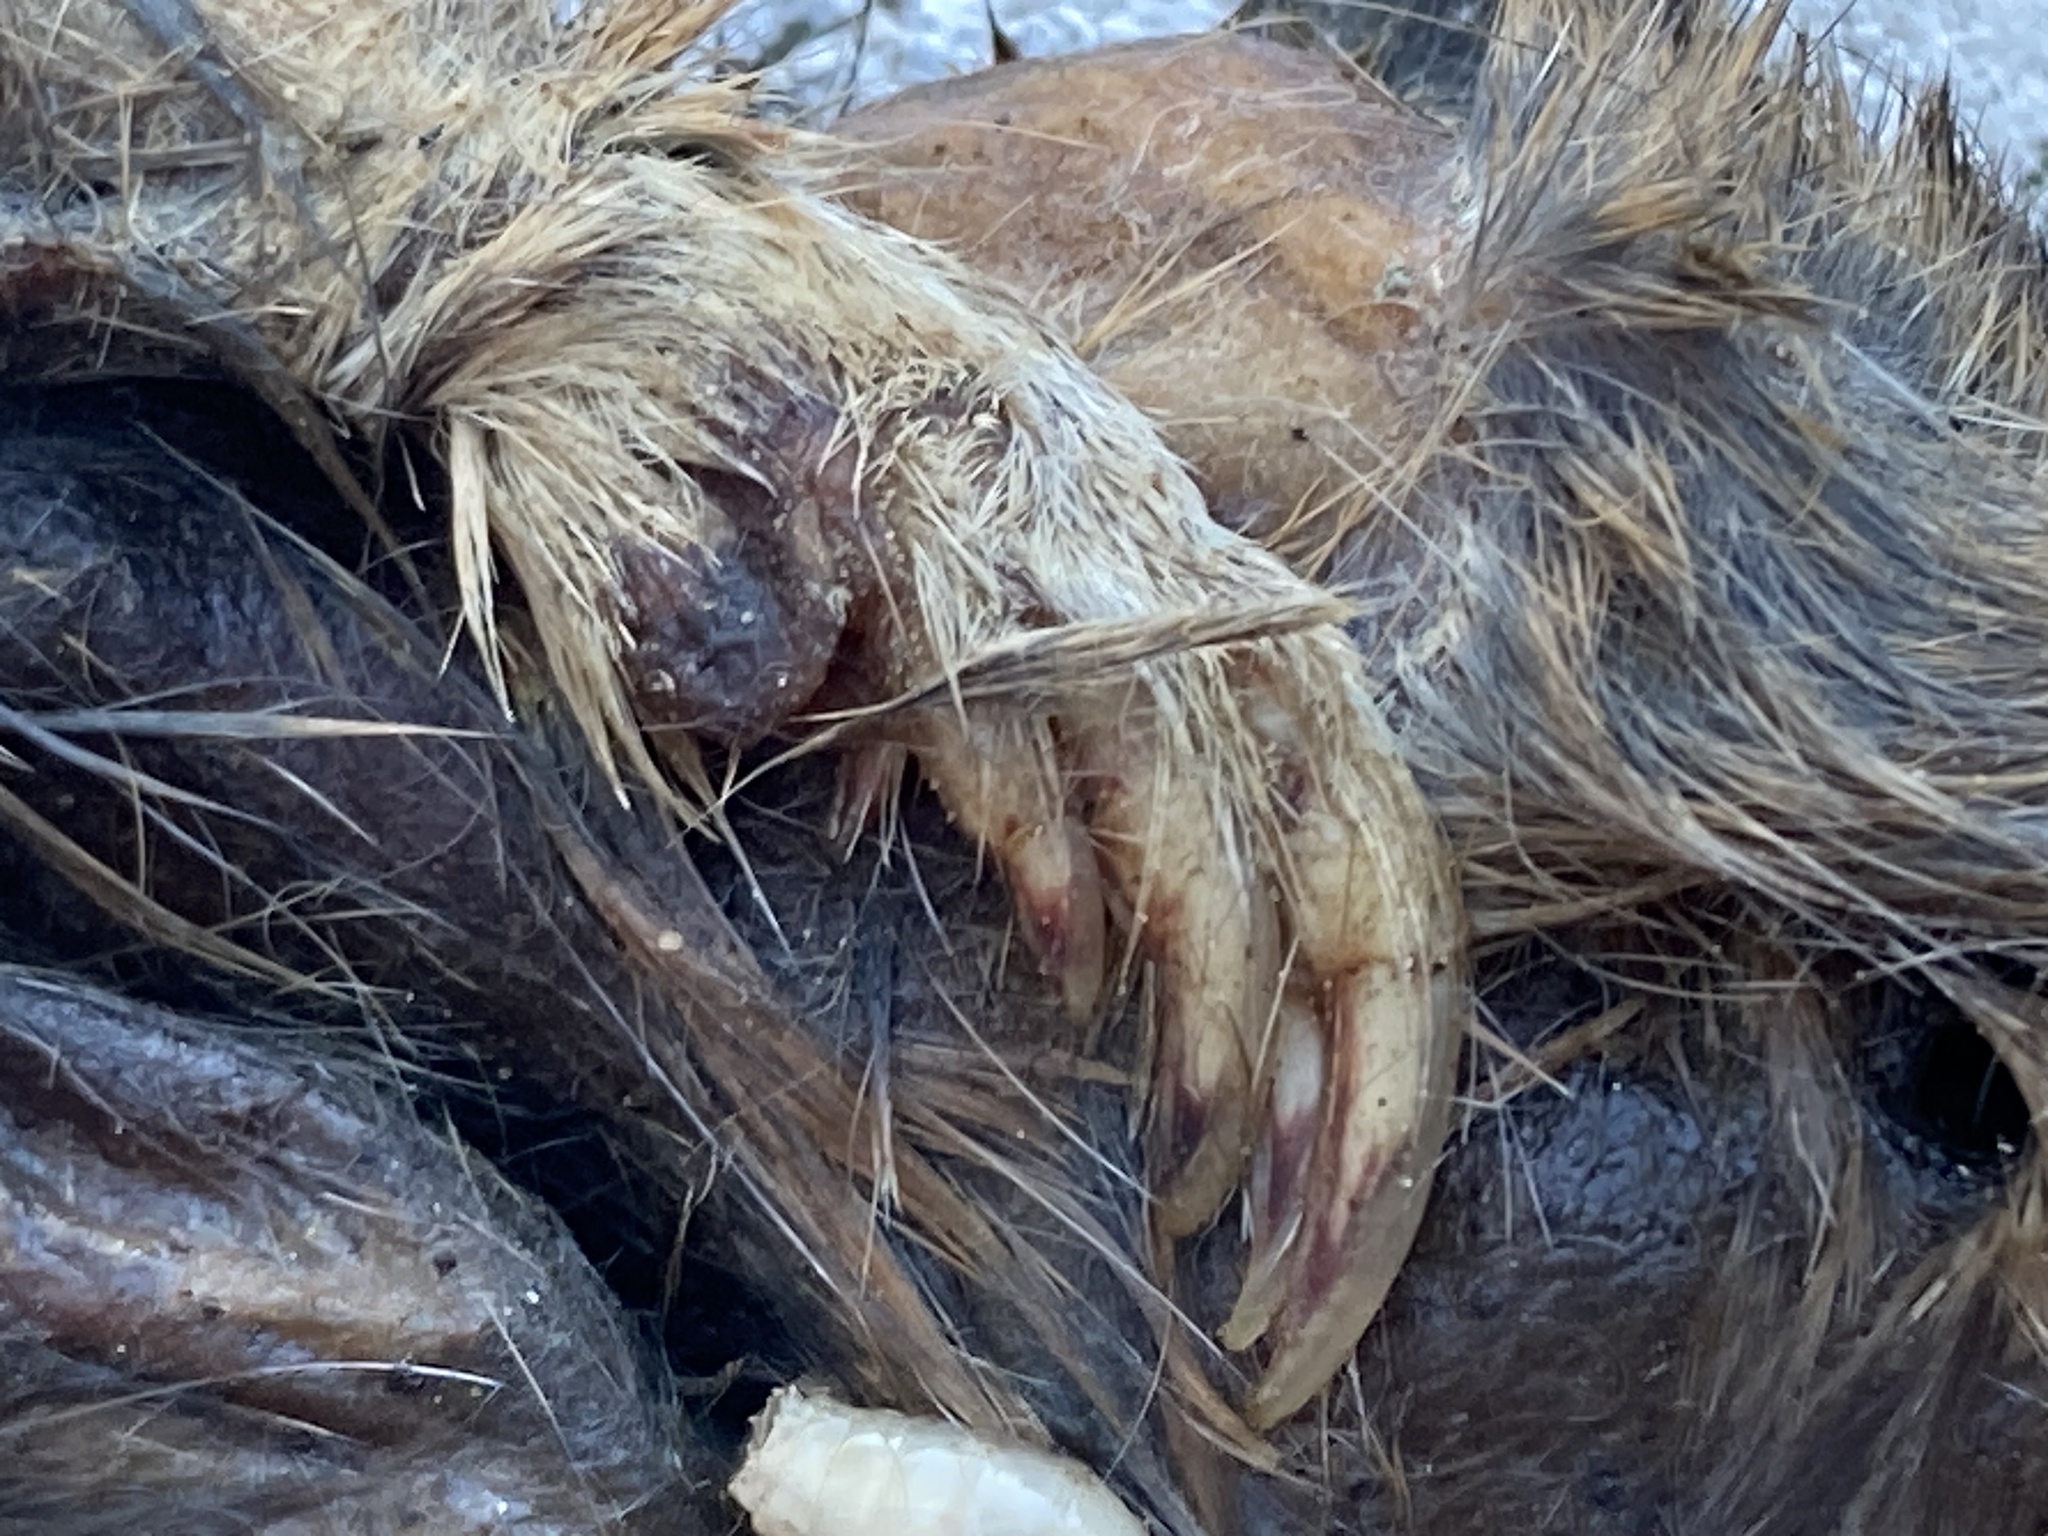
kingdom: Animalia
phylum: Chordata
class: Mammalia
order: Rodentia
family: Geomyidae
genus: Thomomys
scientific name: Thomomys bottae
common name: Botta's pocket gopher
